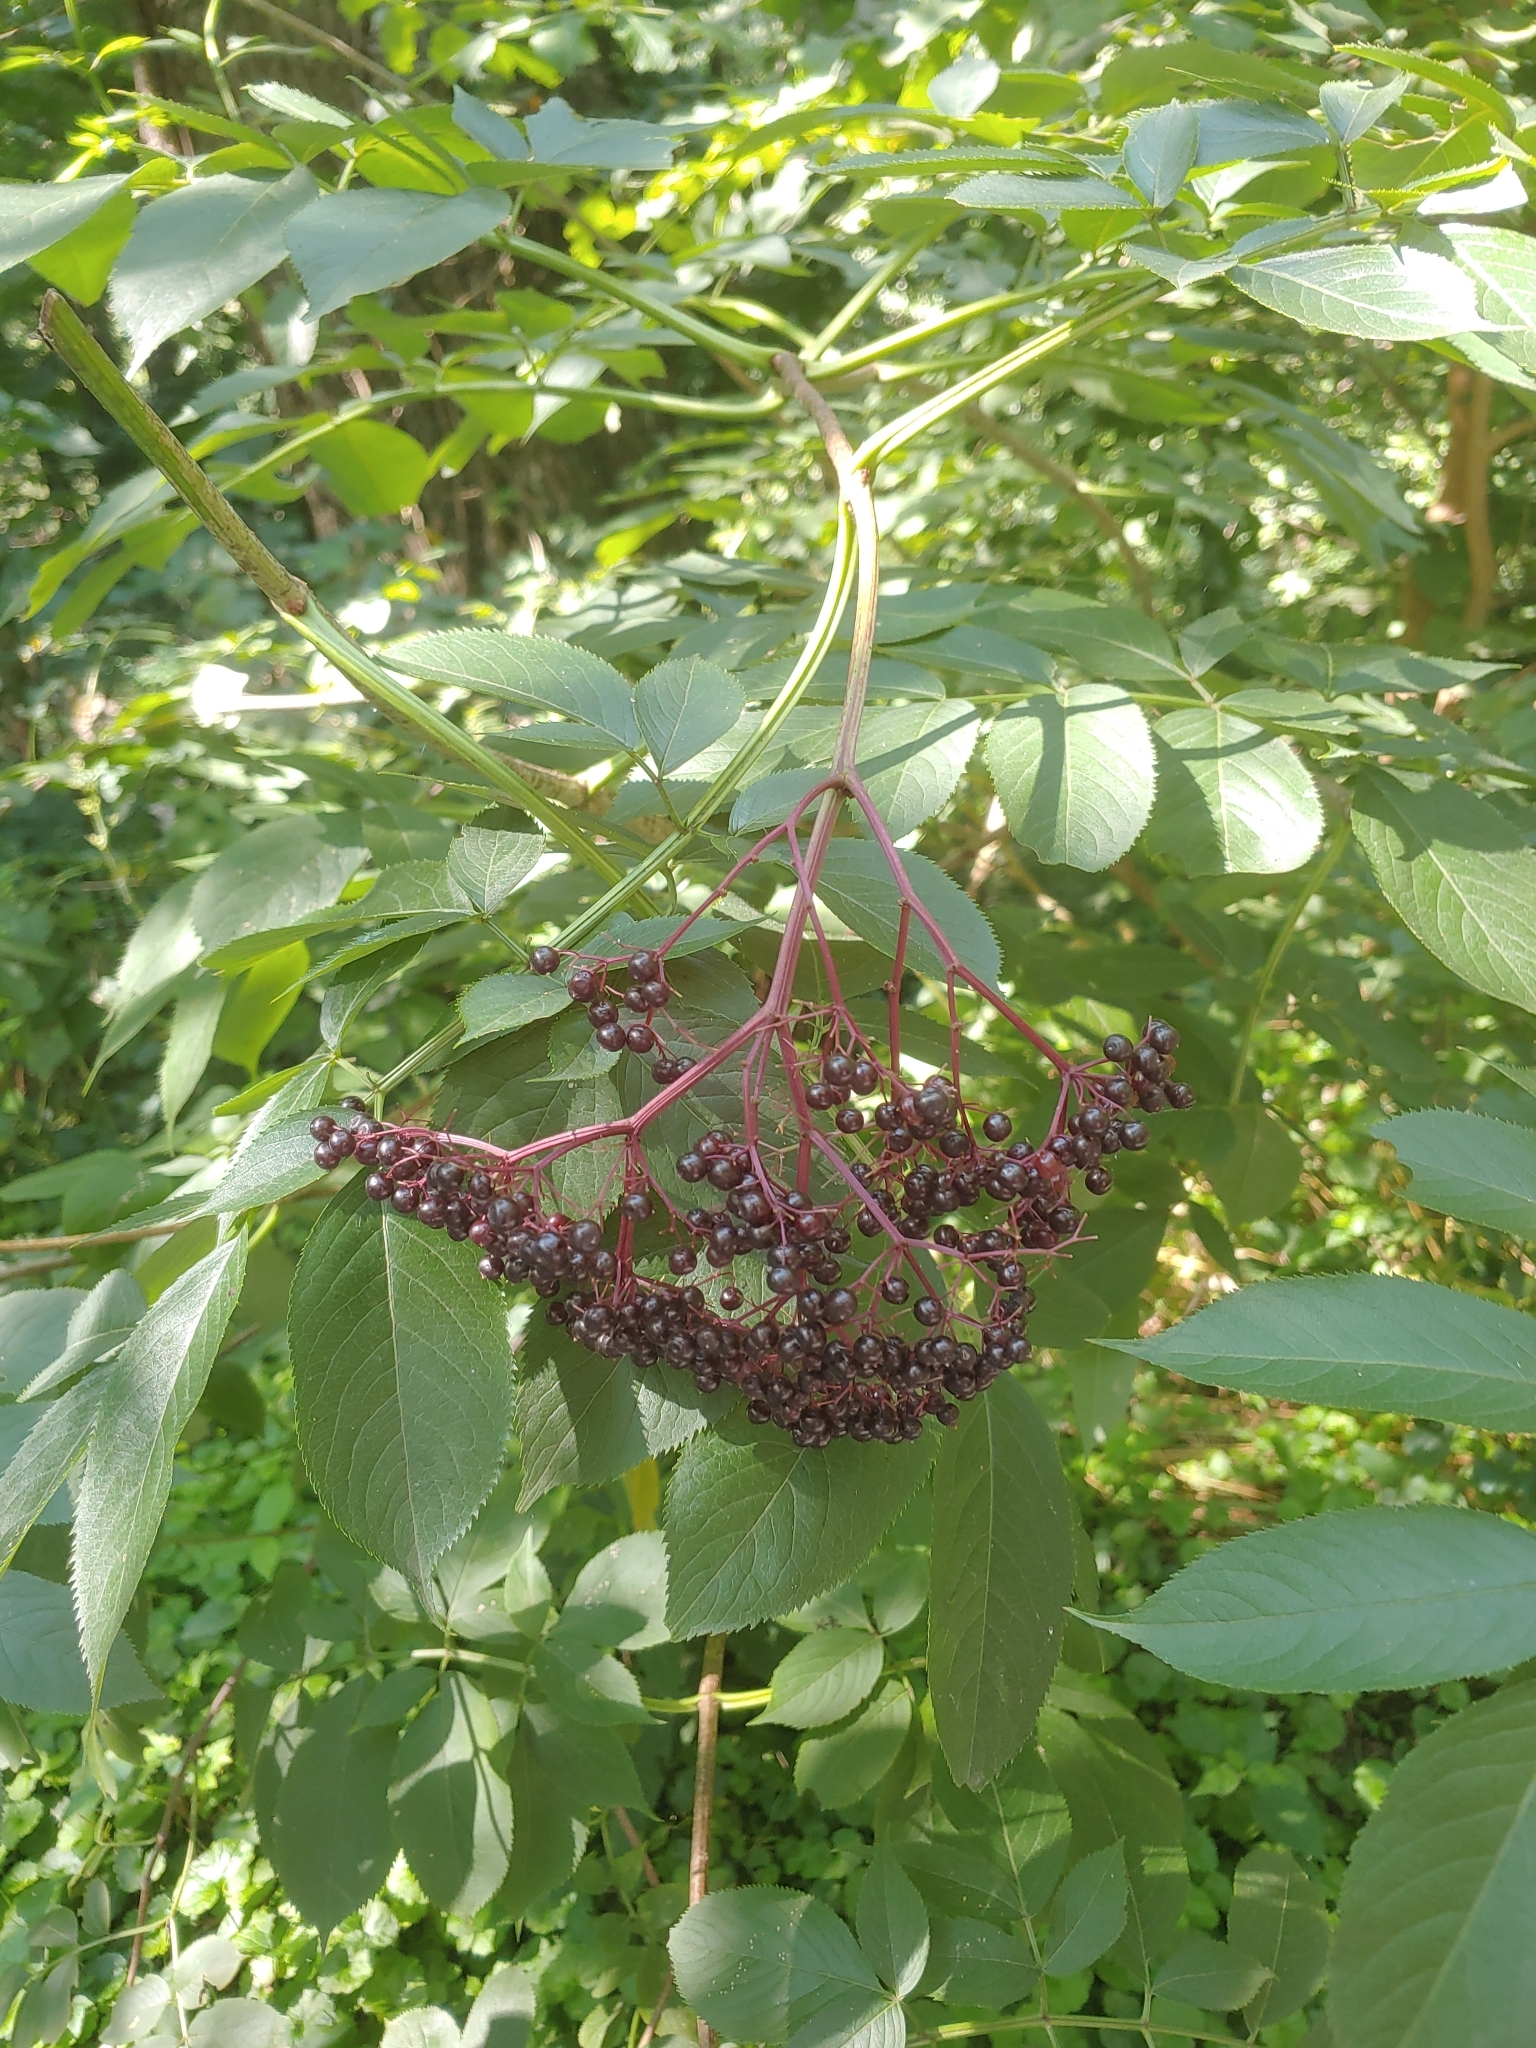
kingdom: Plantae
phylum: Tracheophyta
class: Magnoliopsida
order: Dipsacales
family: Viburnaceae
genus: Sambucus
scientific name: Sambucus canadensis
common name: American elder
